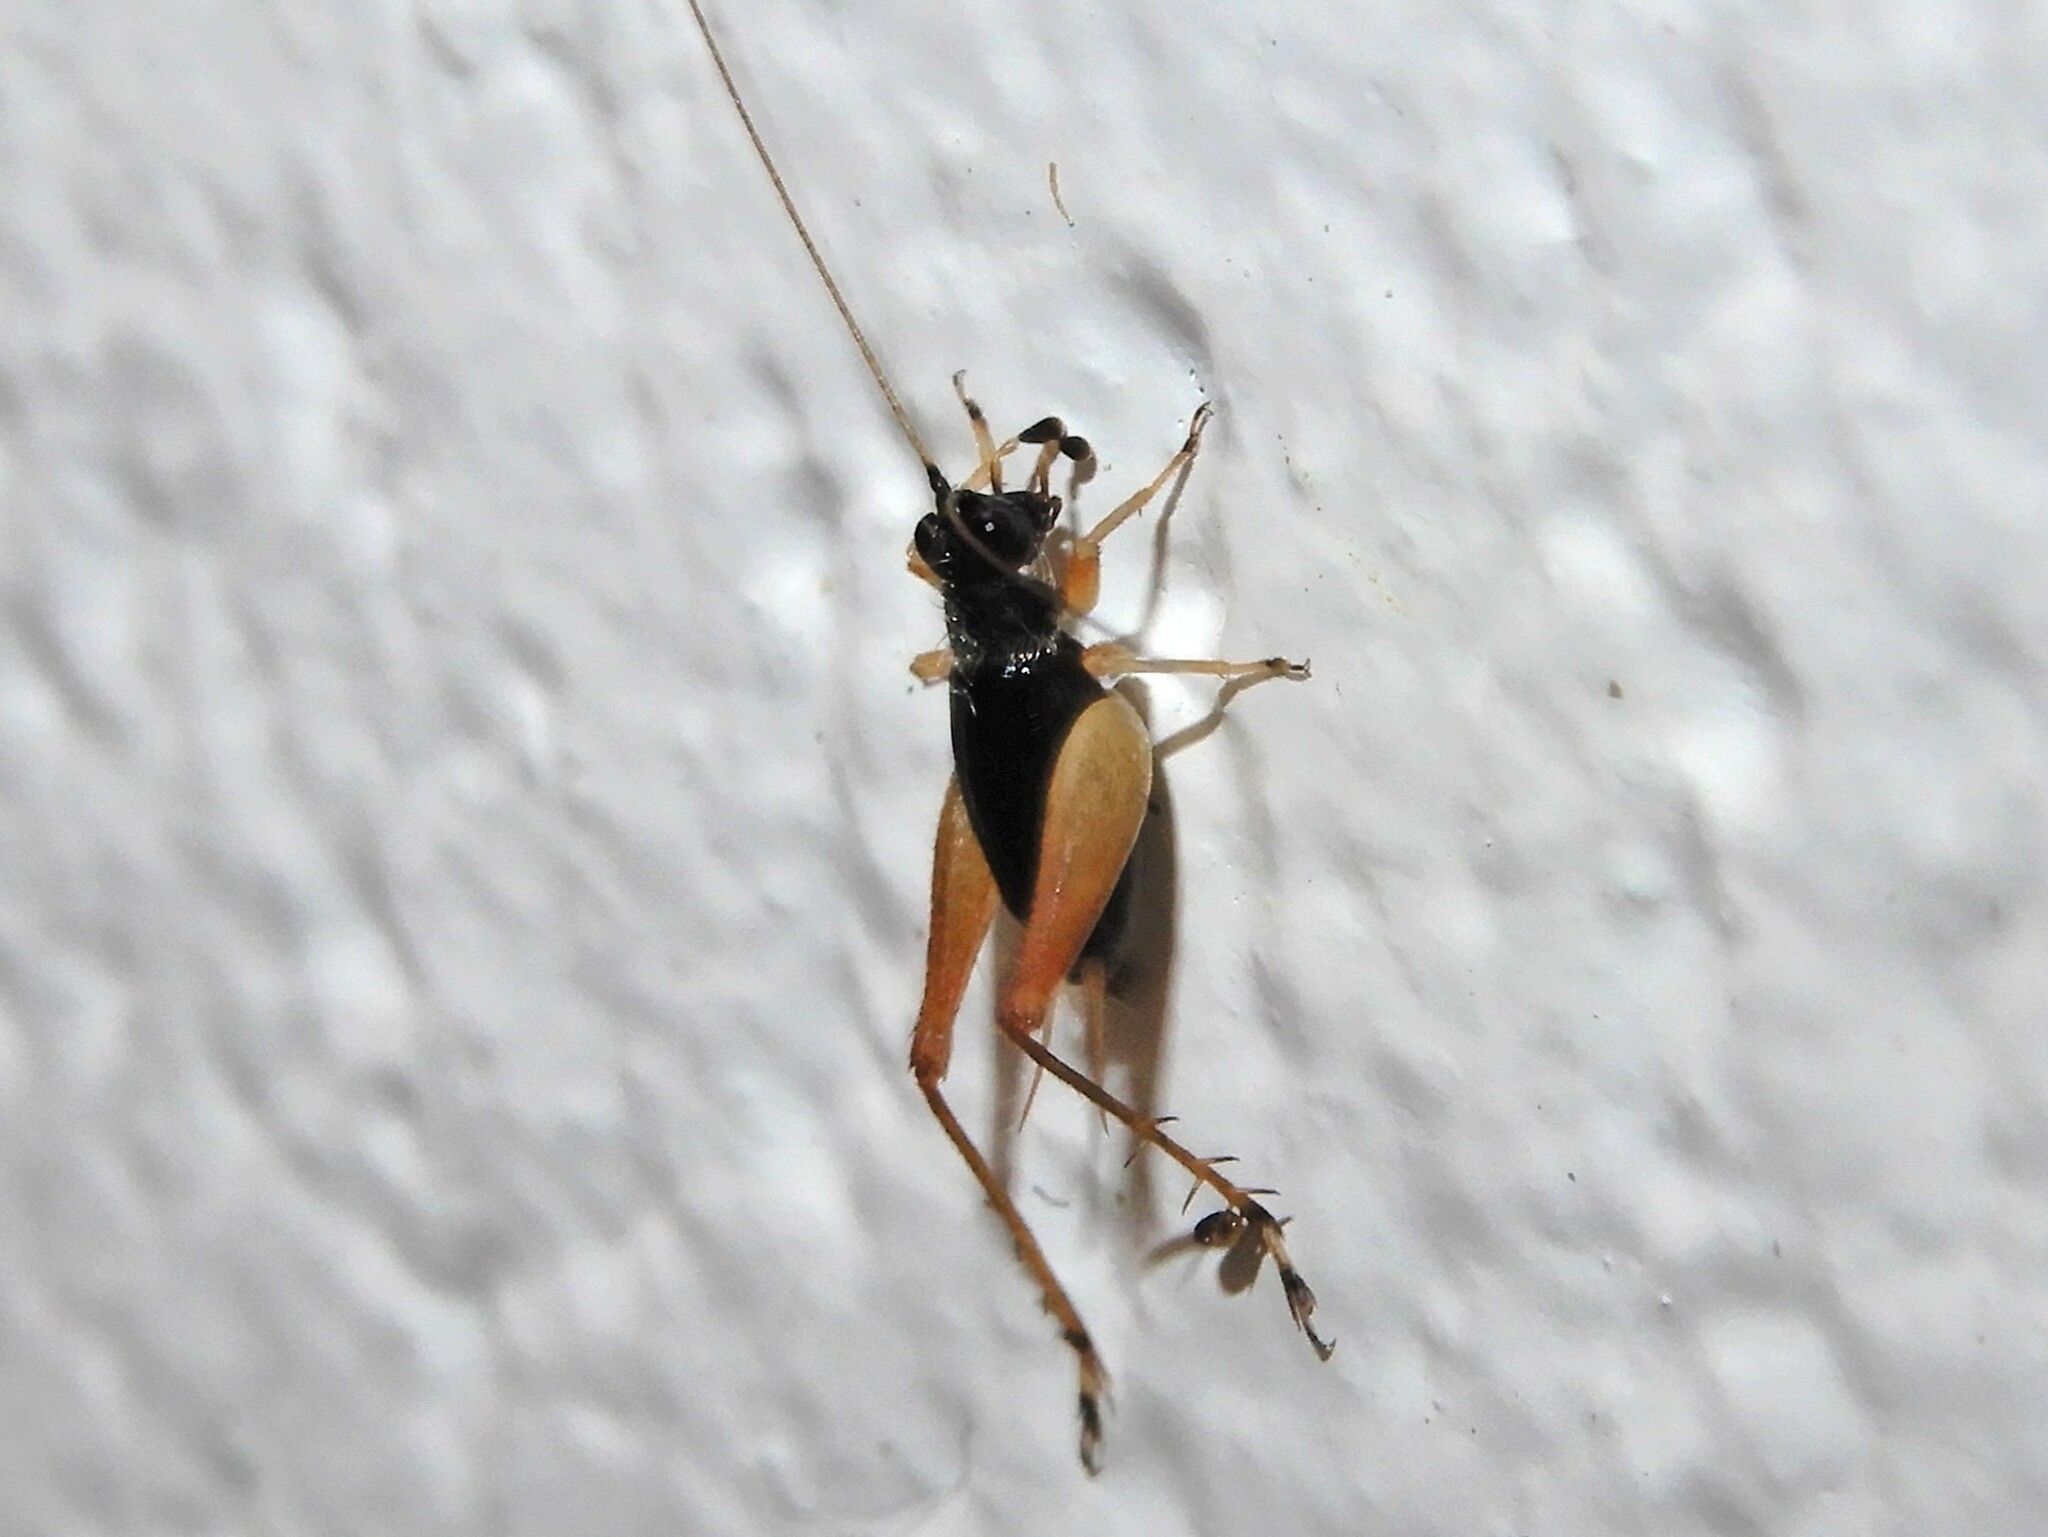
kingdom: Animalia
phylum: Arthropoda
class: Insecta
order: Orthoptera
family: Trigonidiidae
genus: Metioche
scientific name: Metioche maorica
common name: New zealand trig
